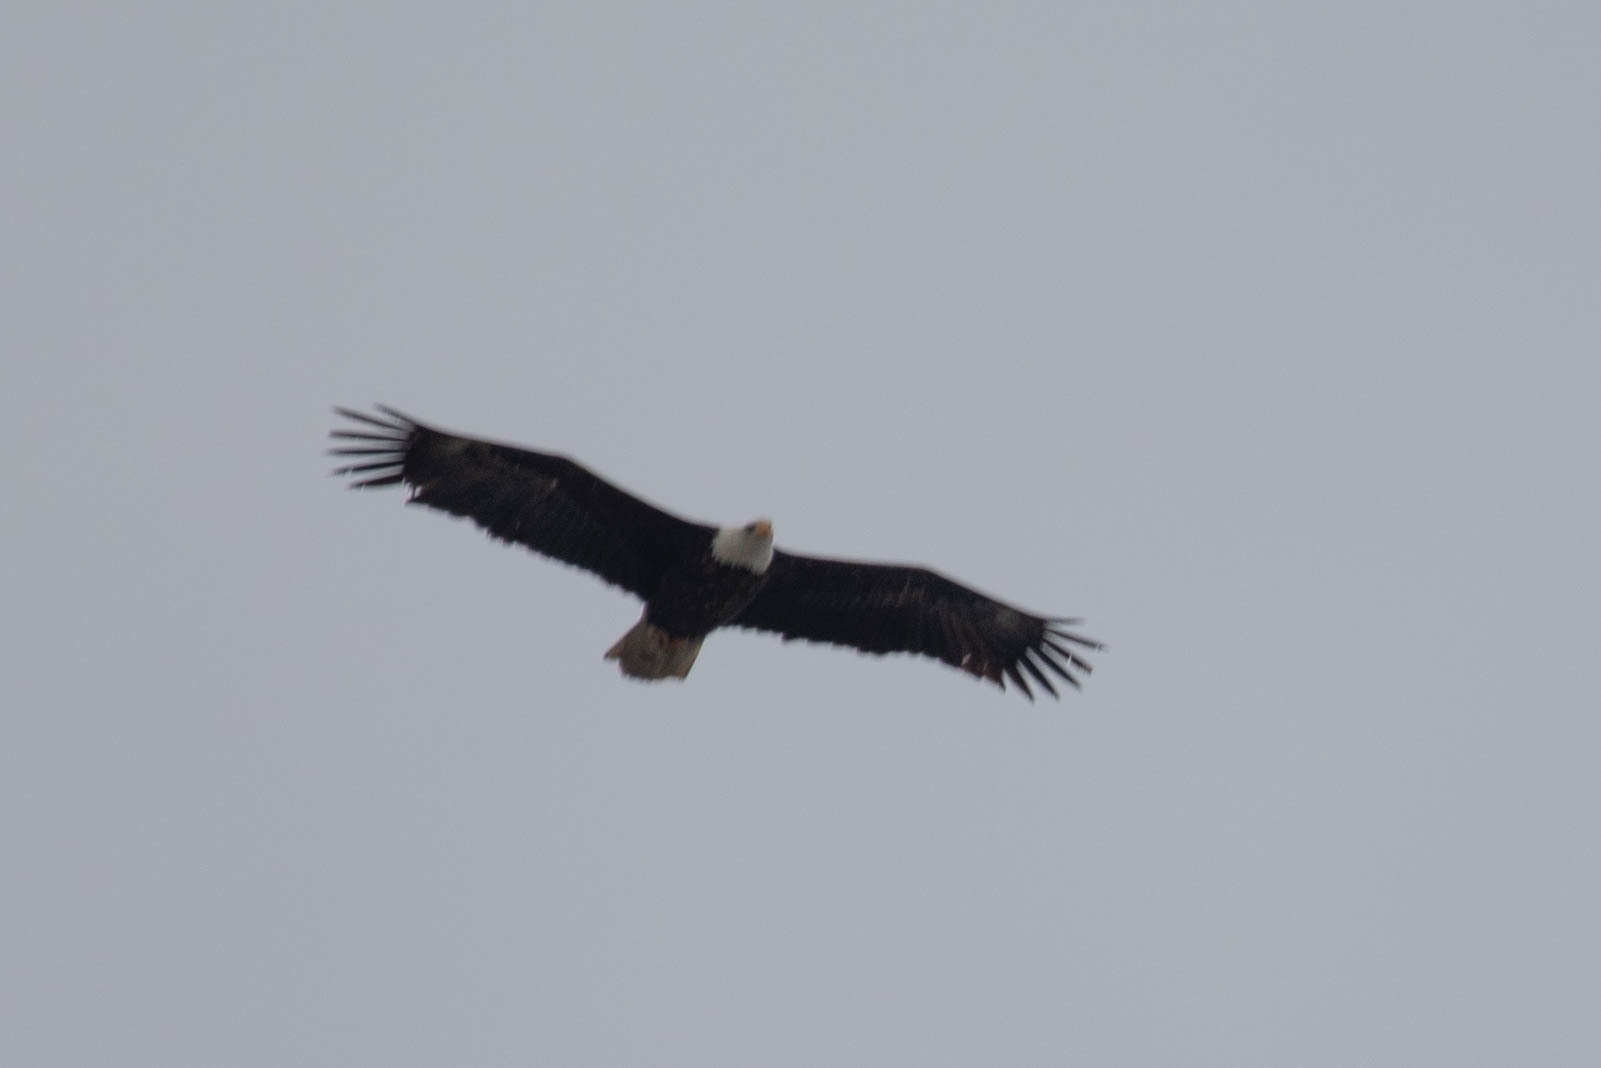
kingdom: Animalia
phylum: Chordata
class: Aves
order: Accipitriformes
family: Accipitridae
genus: Haliaeetus
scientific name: Haliaeetus leucocephalus
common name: Bald eagle
